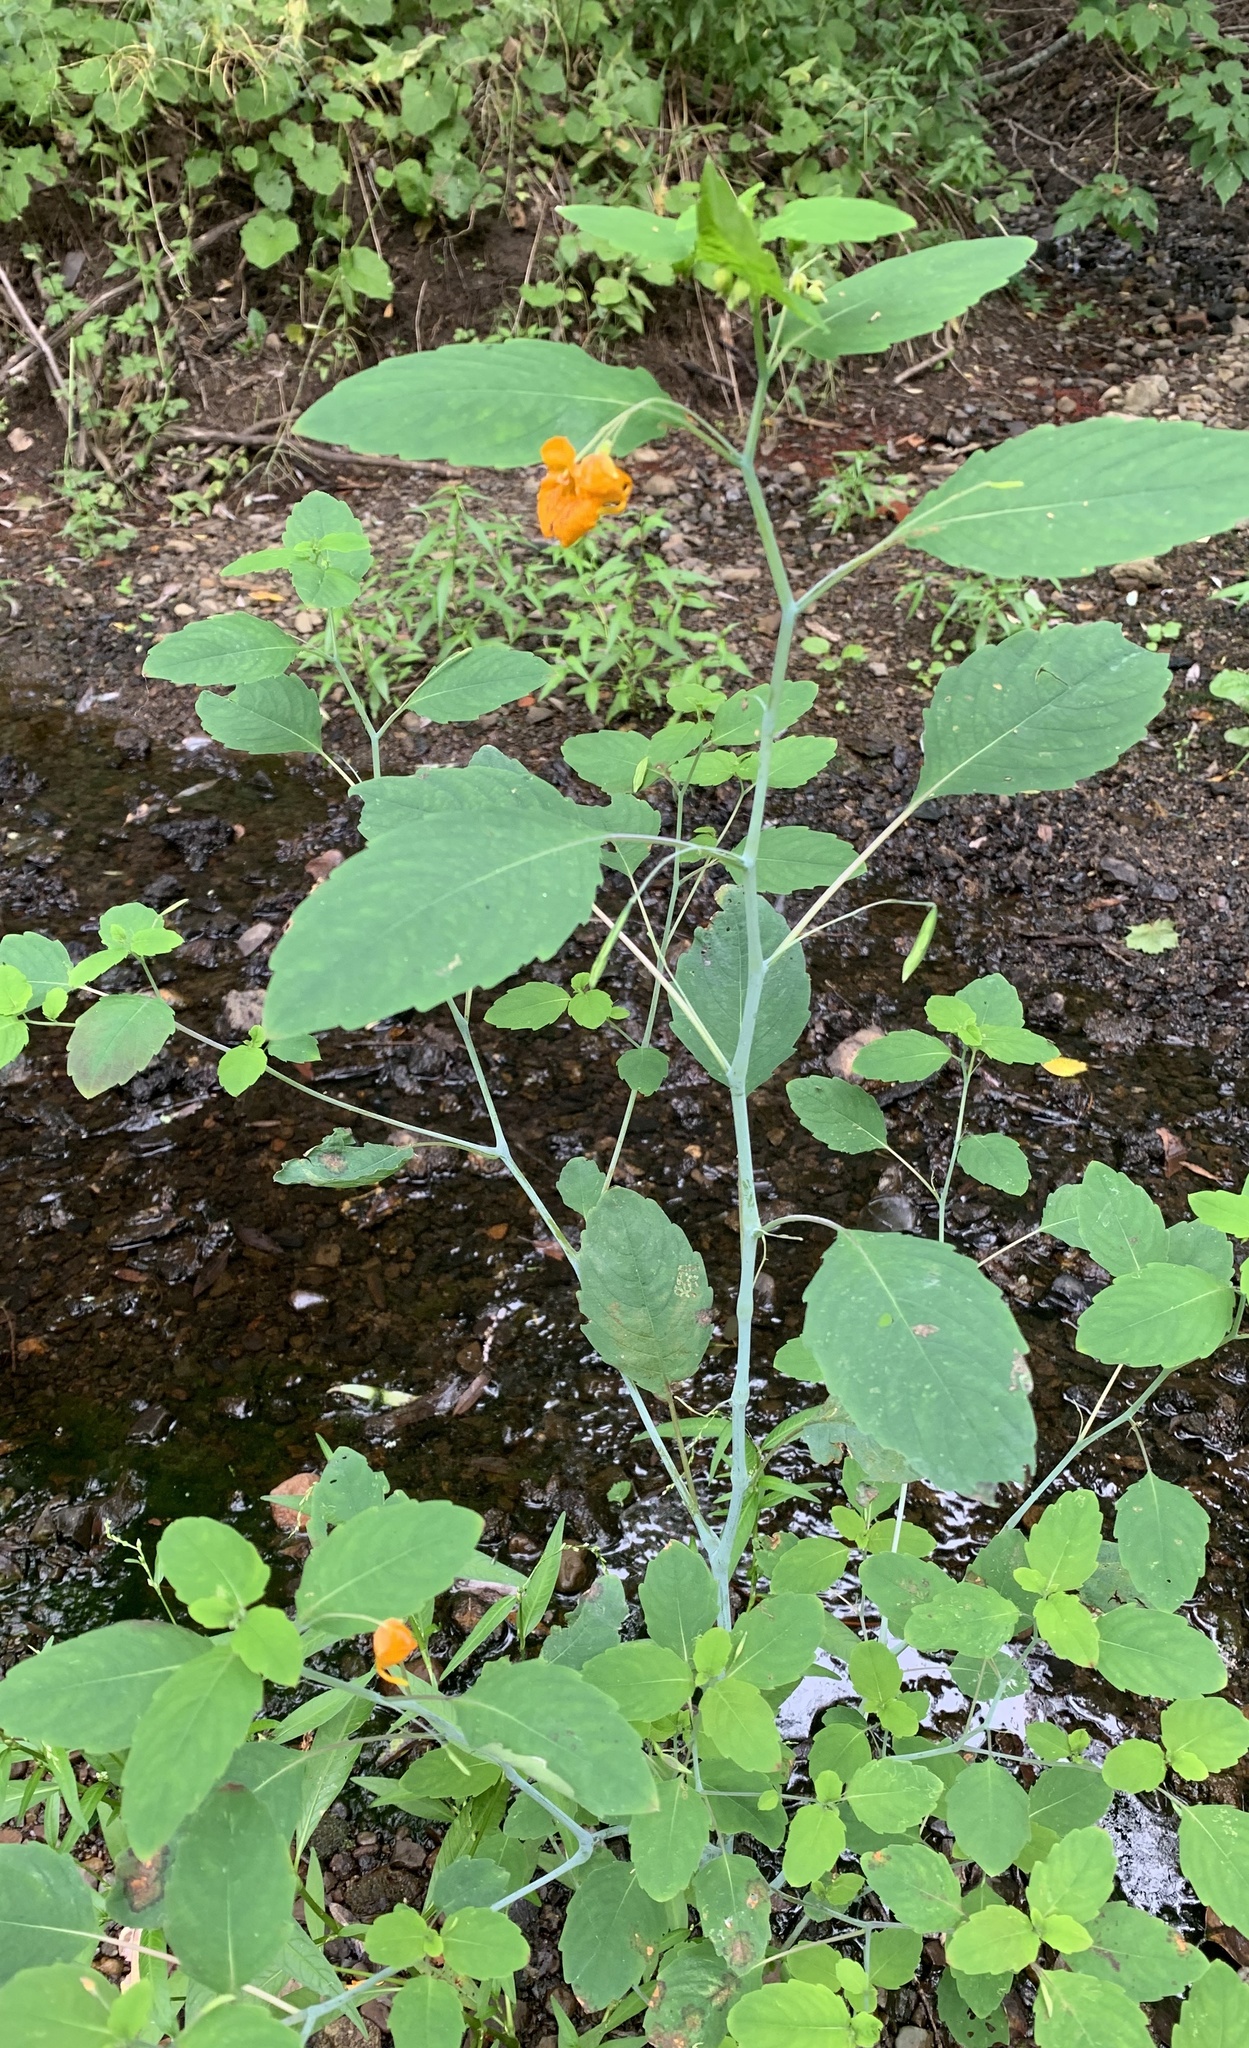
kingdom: Plantae
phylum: Tracheophyta
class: Magnoliopsida
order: Ericales
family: Balsaminaceae
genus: Impatiens
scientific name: Impatiens capensis
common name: Orange balsam
